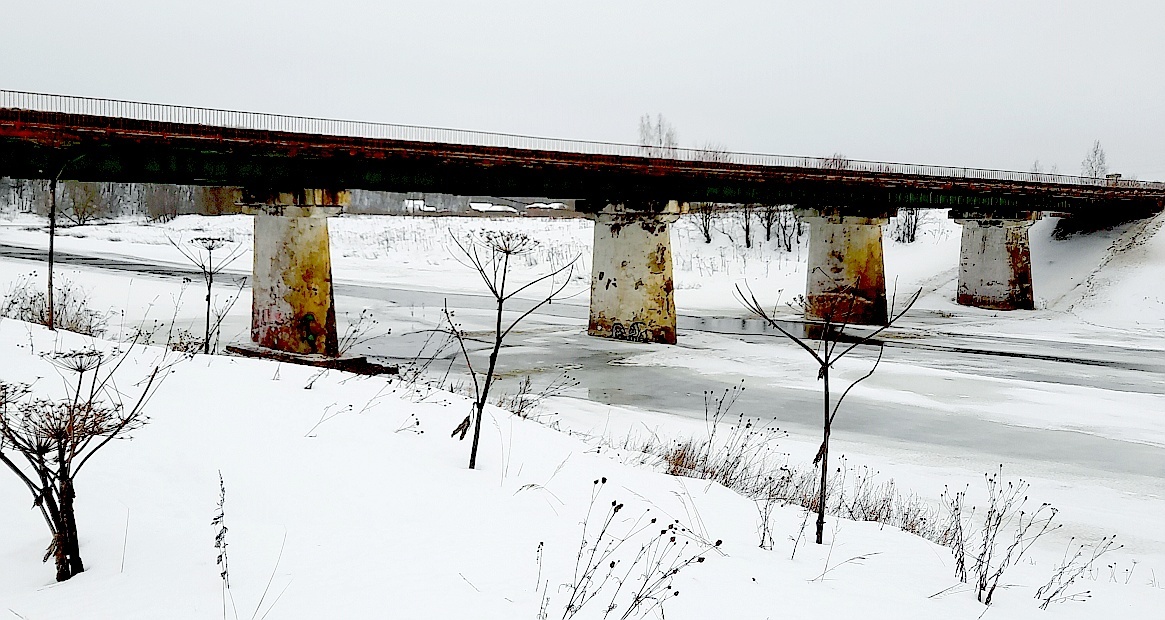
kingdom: Plantae
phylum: Tracheophyta
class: Magnoliopsida
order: Apiales
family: Apiaceae
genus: Heracleum
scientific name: Heracleum sosnowskyi
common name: Sosnowsky's hogweed
